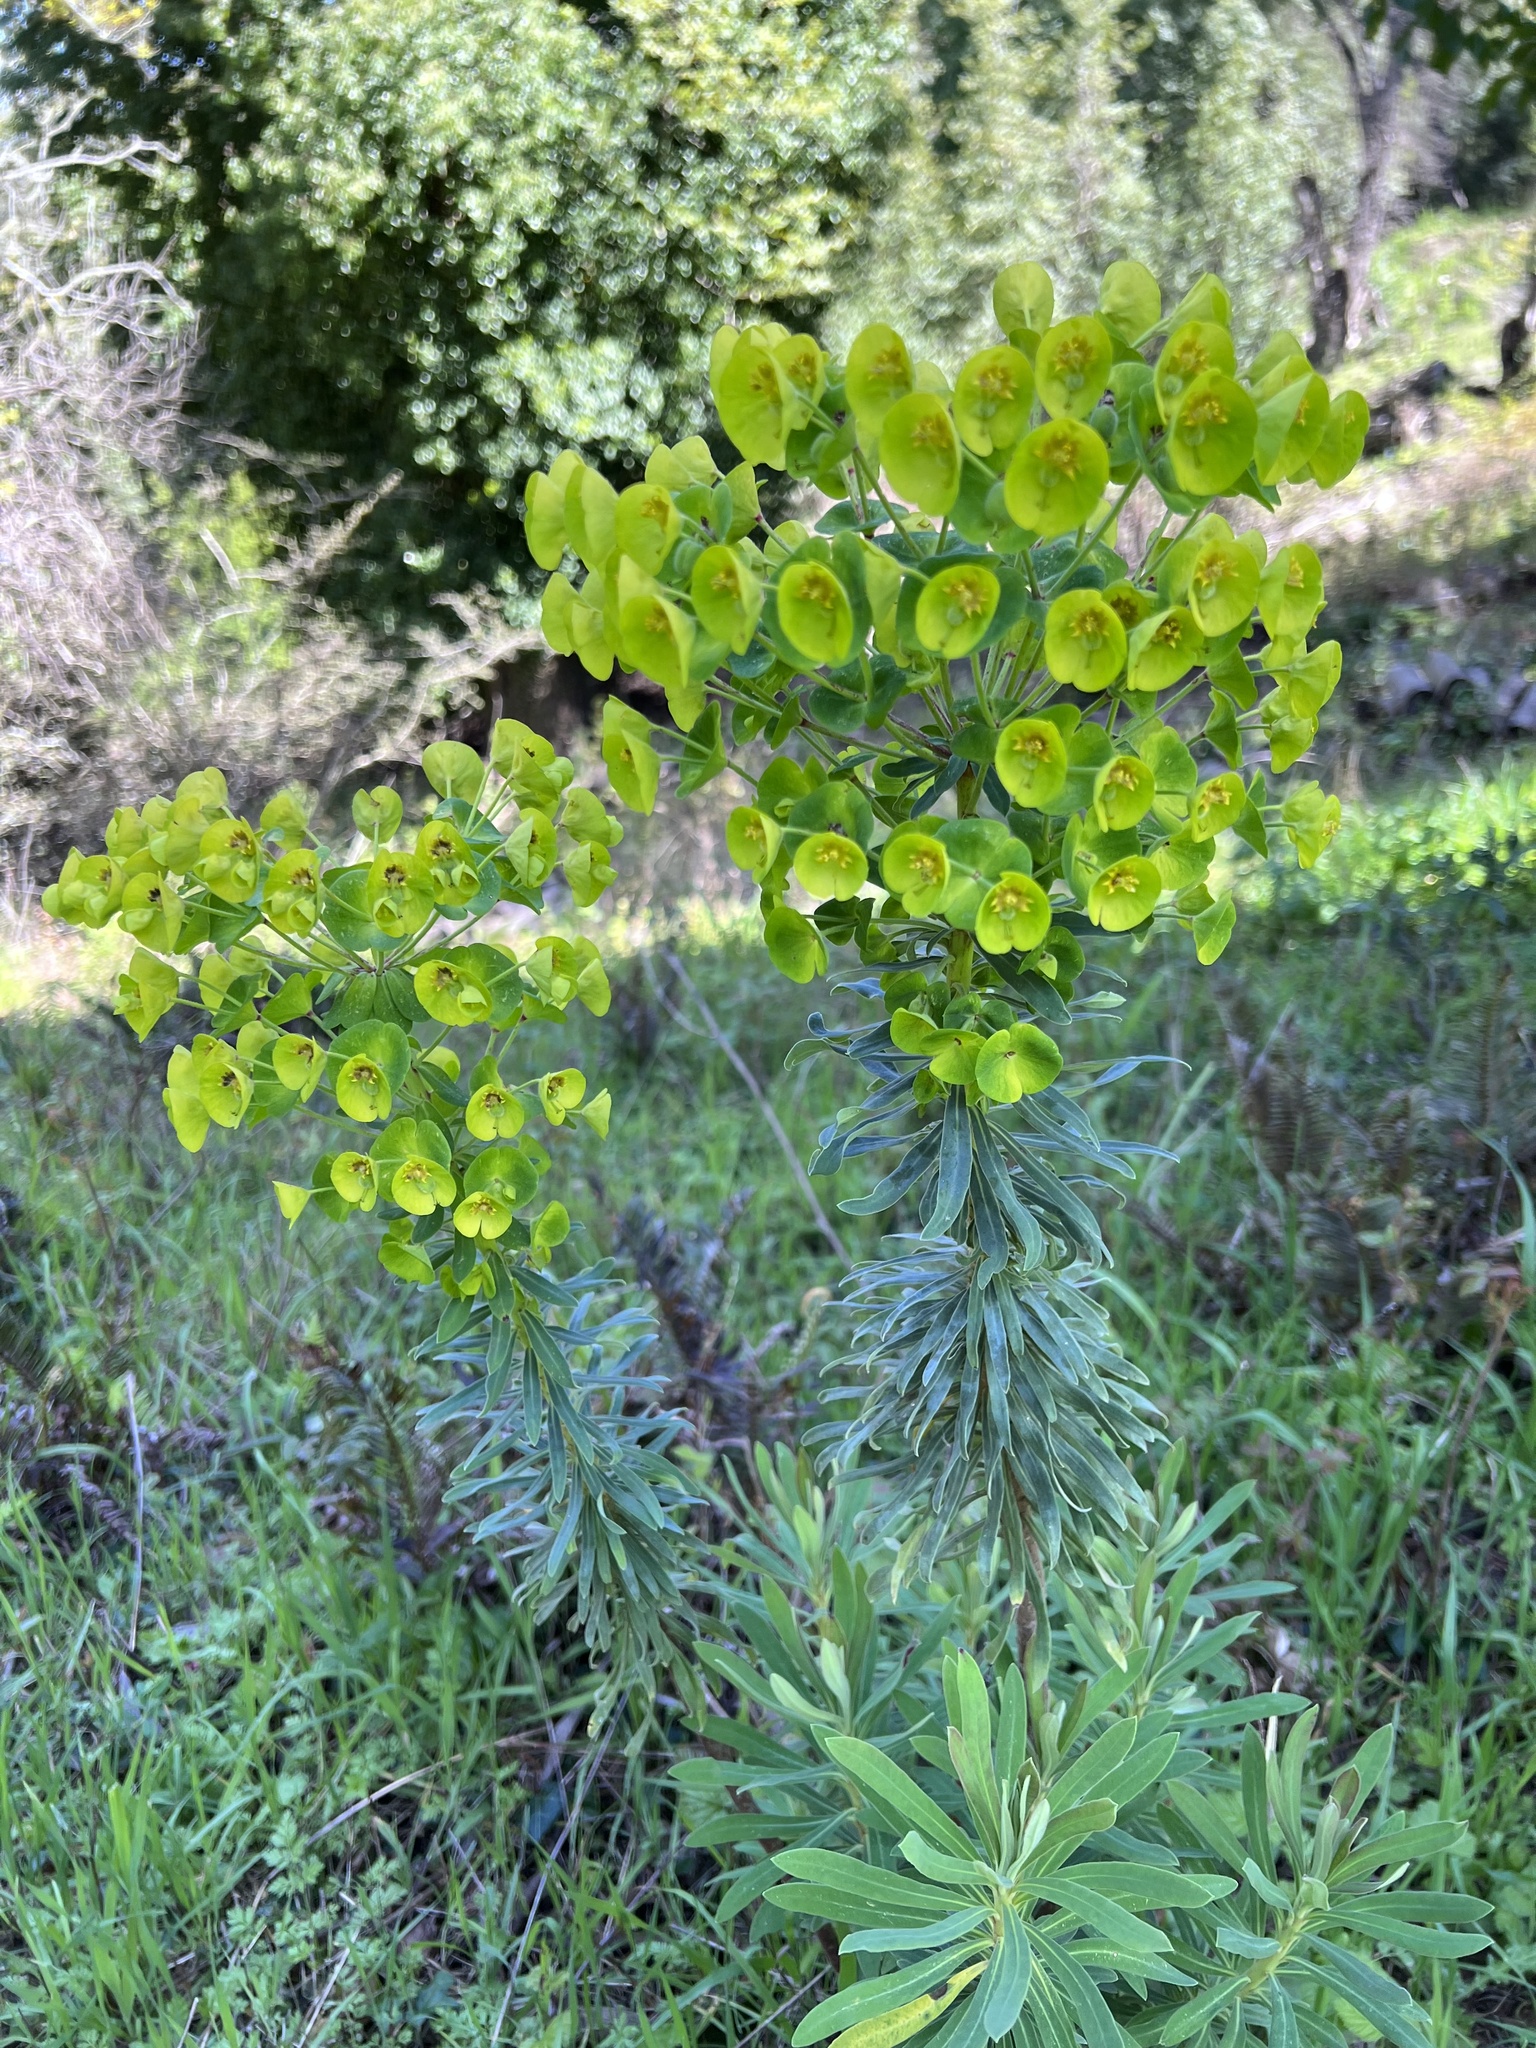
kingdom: Plantae
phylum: Tracheophyta
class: Magnoliopsida
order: Malpighiales
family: Euphorbiaceae
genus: Euphorbia
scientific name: Euphorbia characias
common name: Mediterranean spurge
